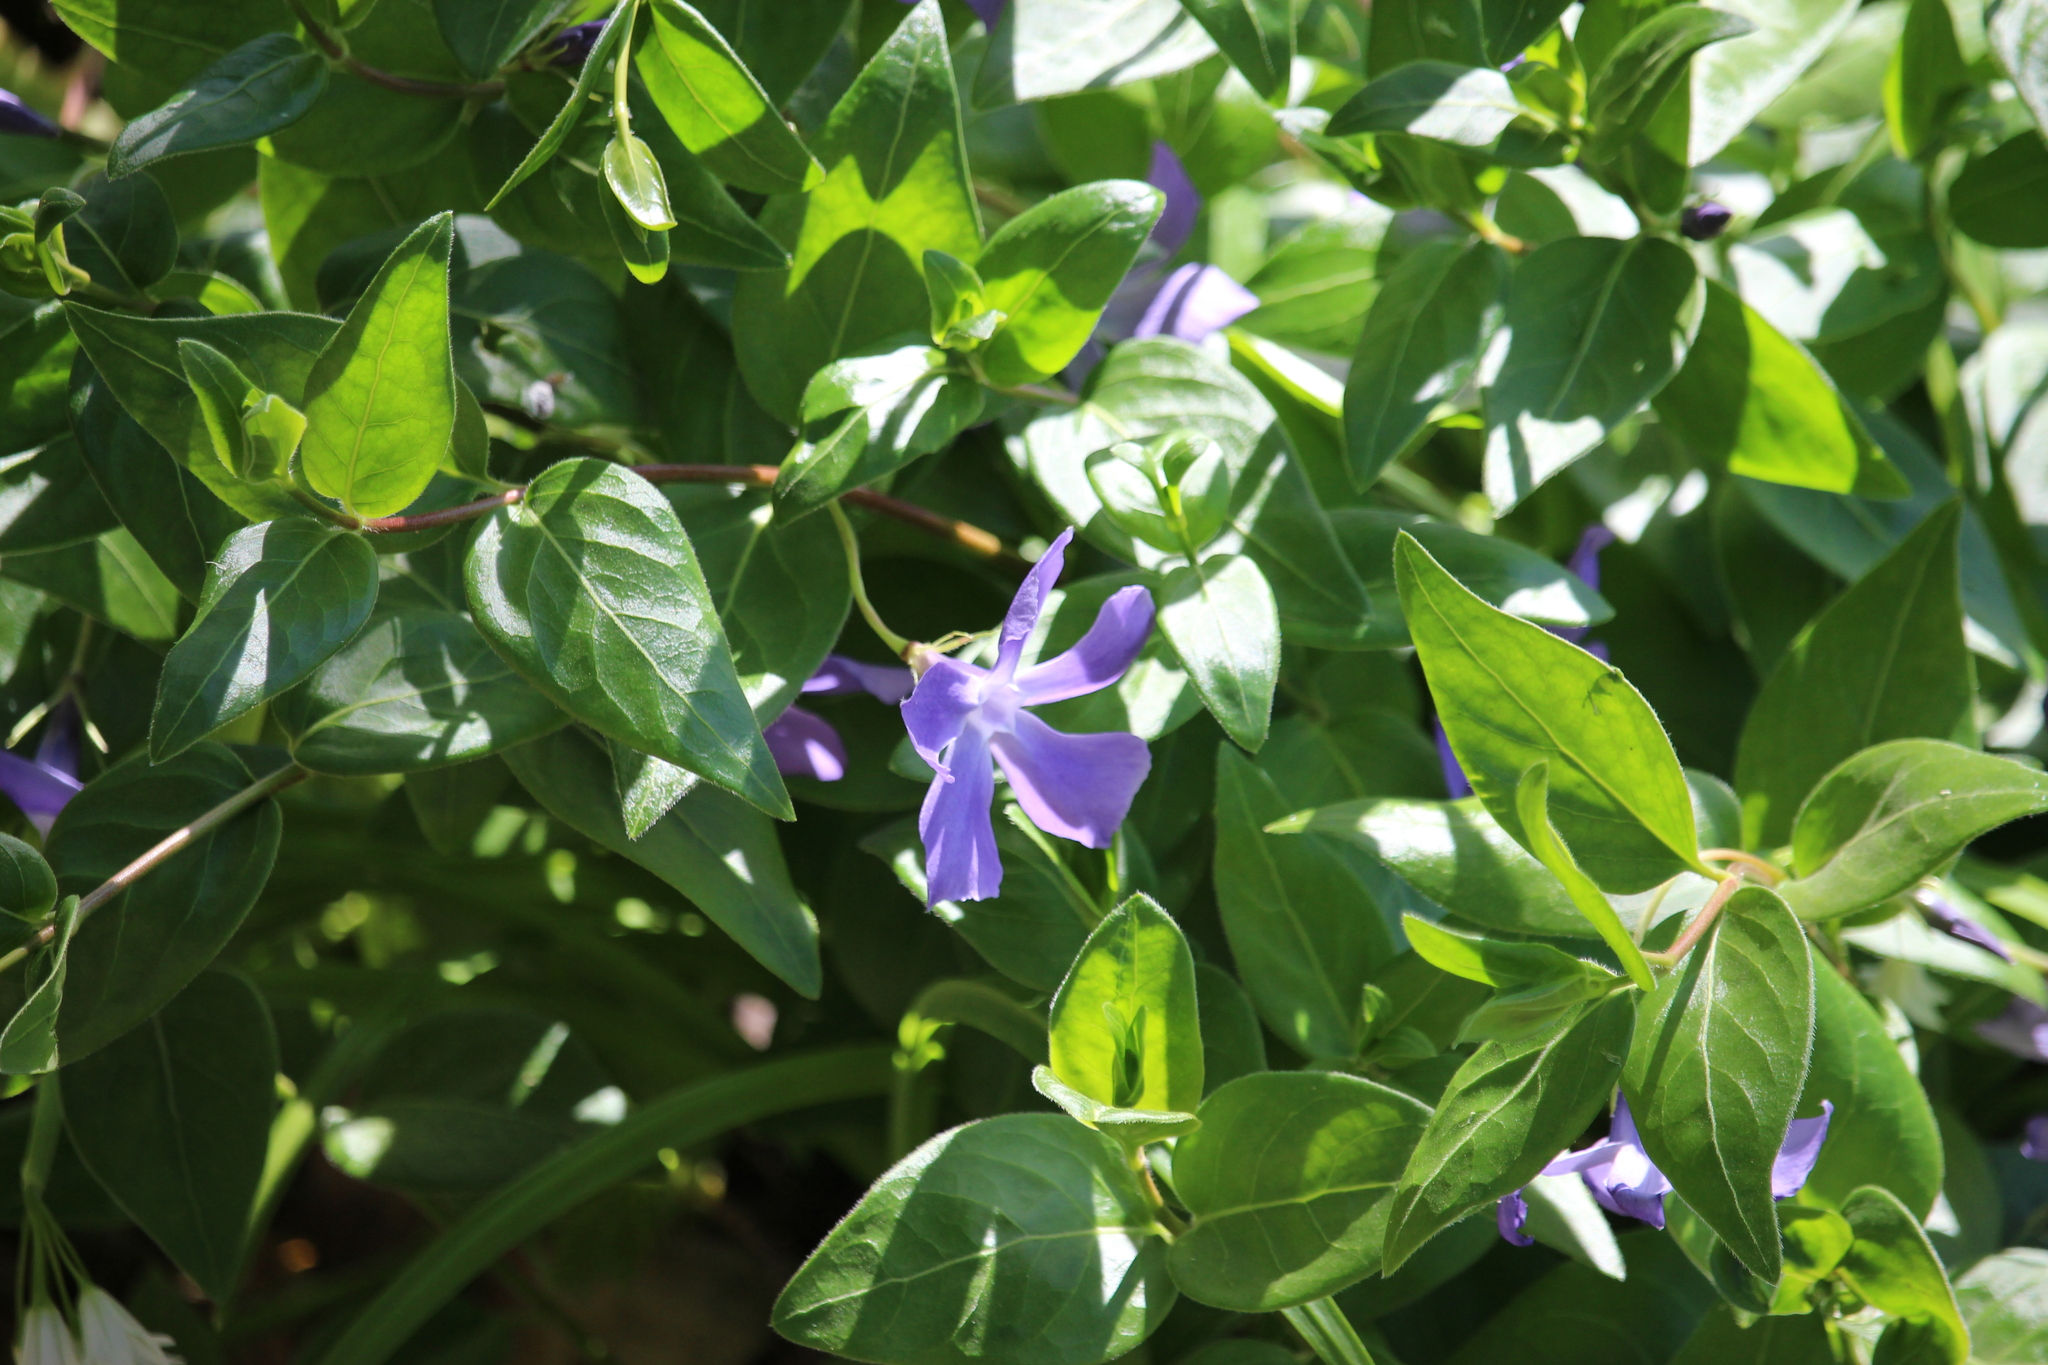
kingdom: Plantae
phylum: Tracheophyta
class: Magnoliopsida
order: Gentianales
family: Apocynaceae
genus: Vinca
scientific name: Vinca major
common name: Greater periwinkle
